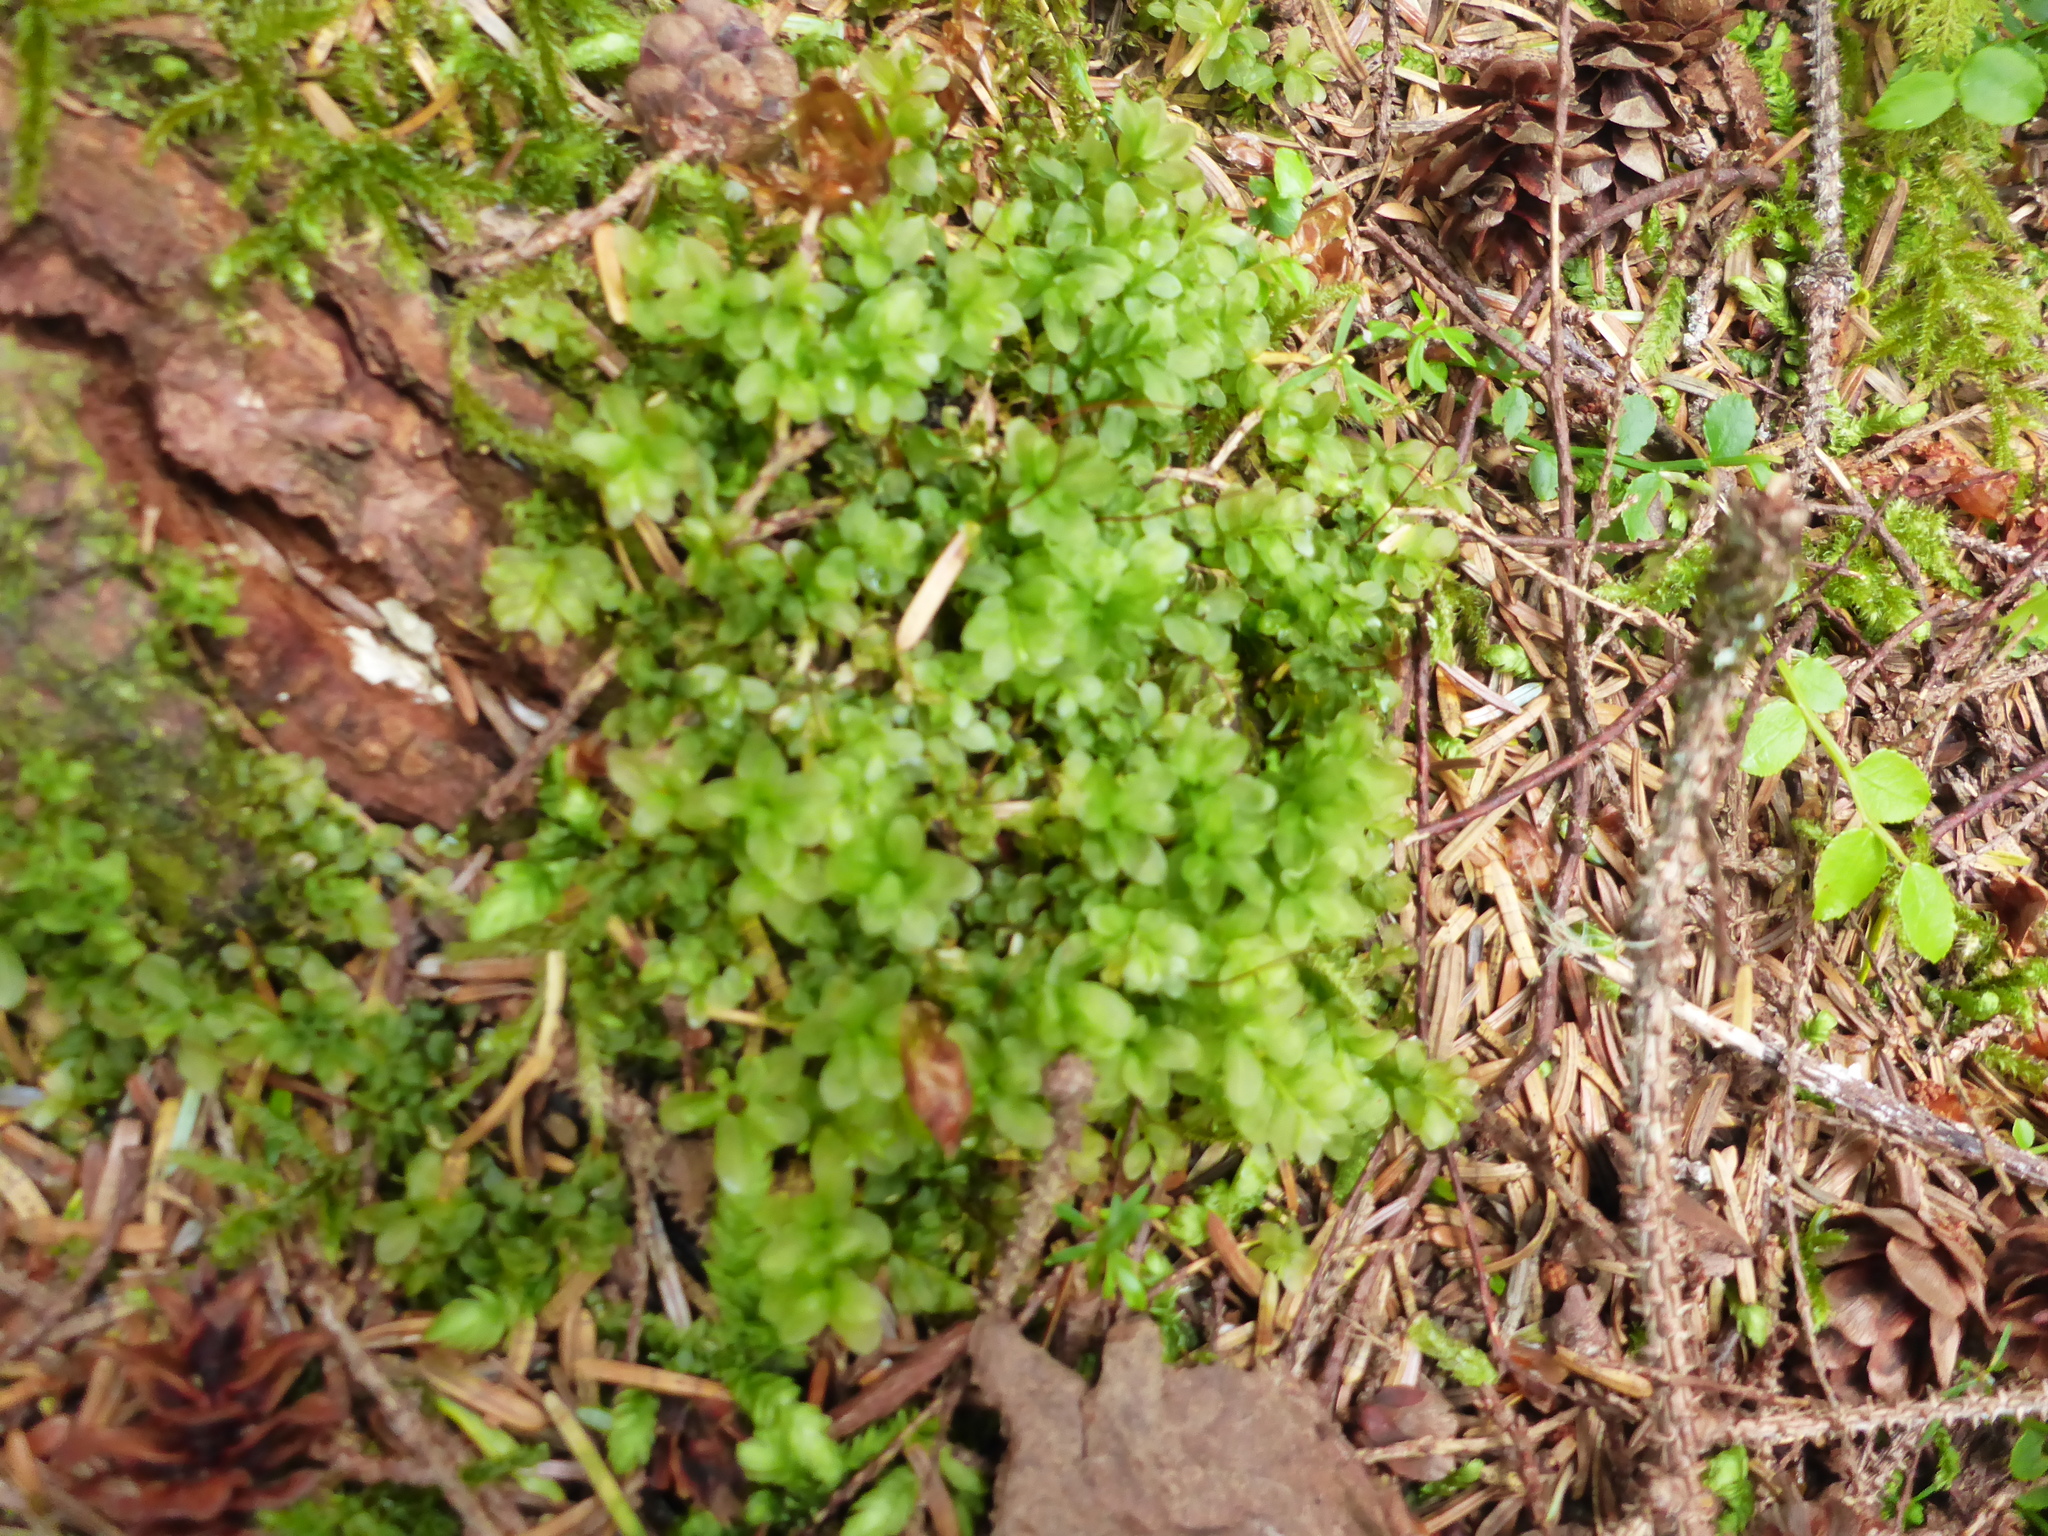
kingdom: Plantae
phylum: Bryophyta
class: Bryopsida
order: Bryales
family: Mniaceae
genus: Rhizomnium
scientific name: Rhizomnium glabrescens
